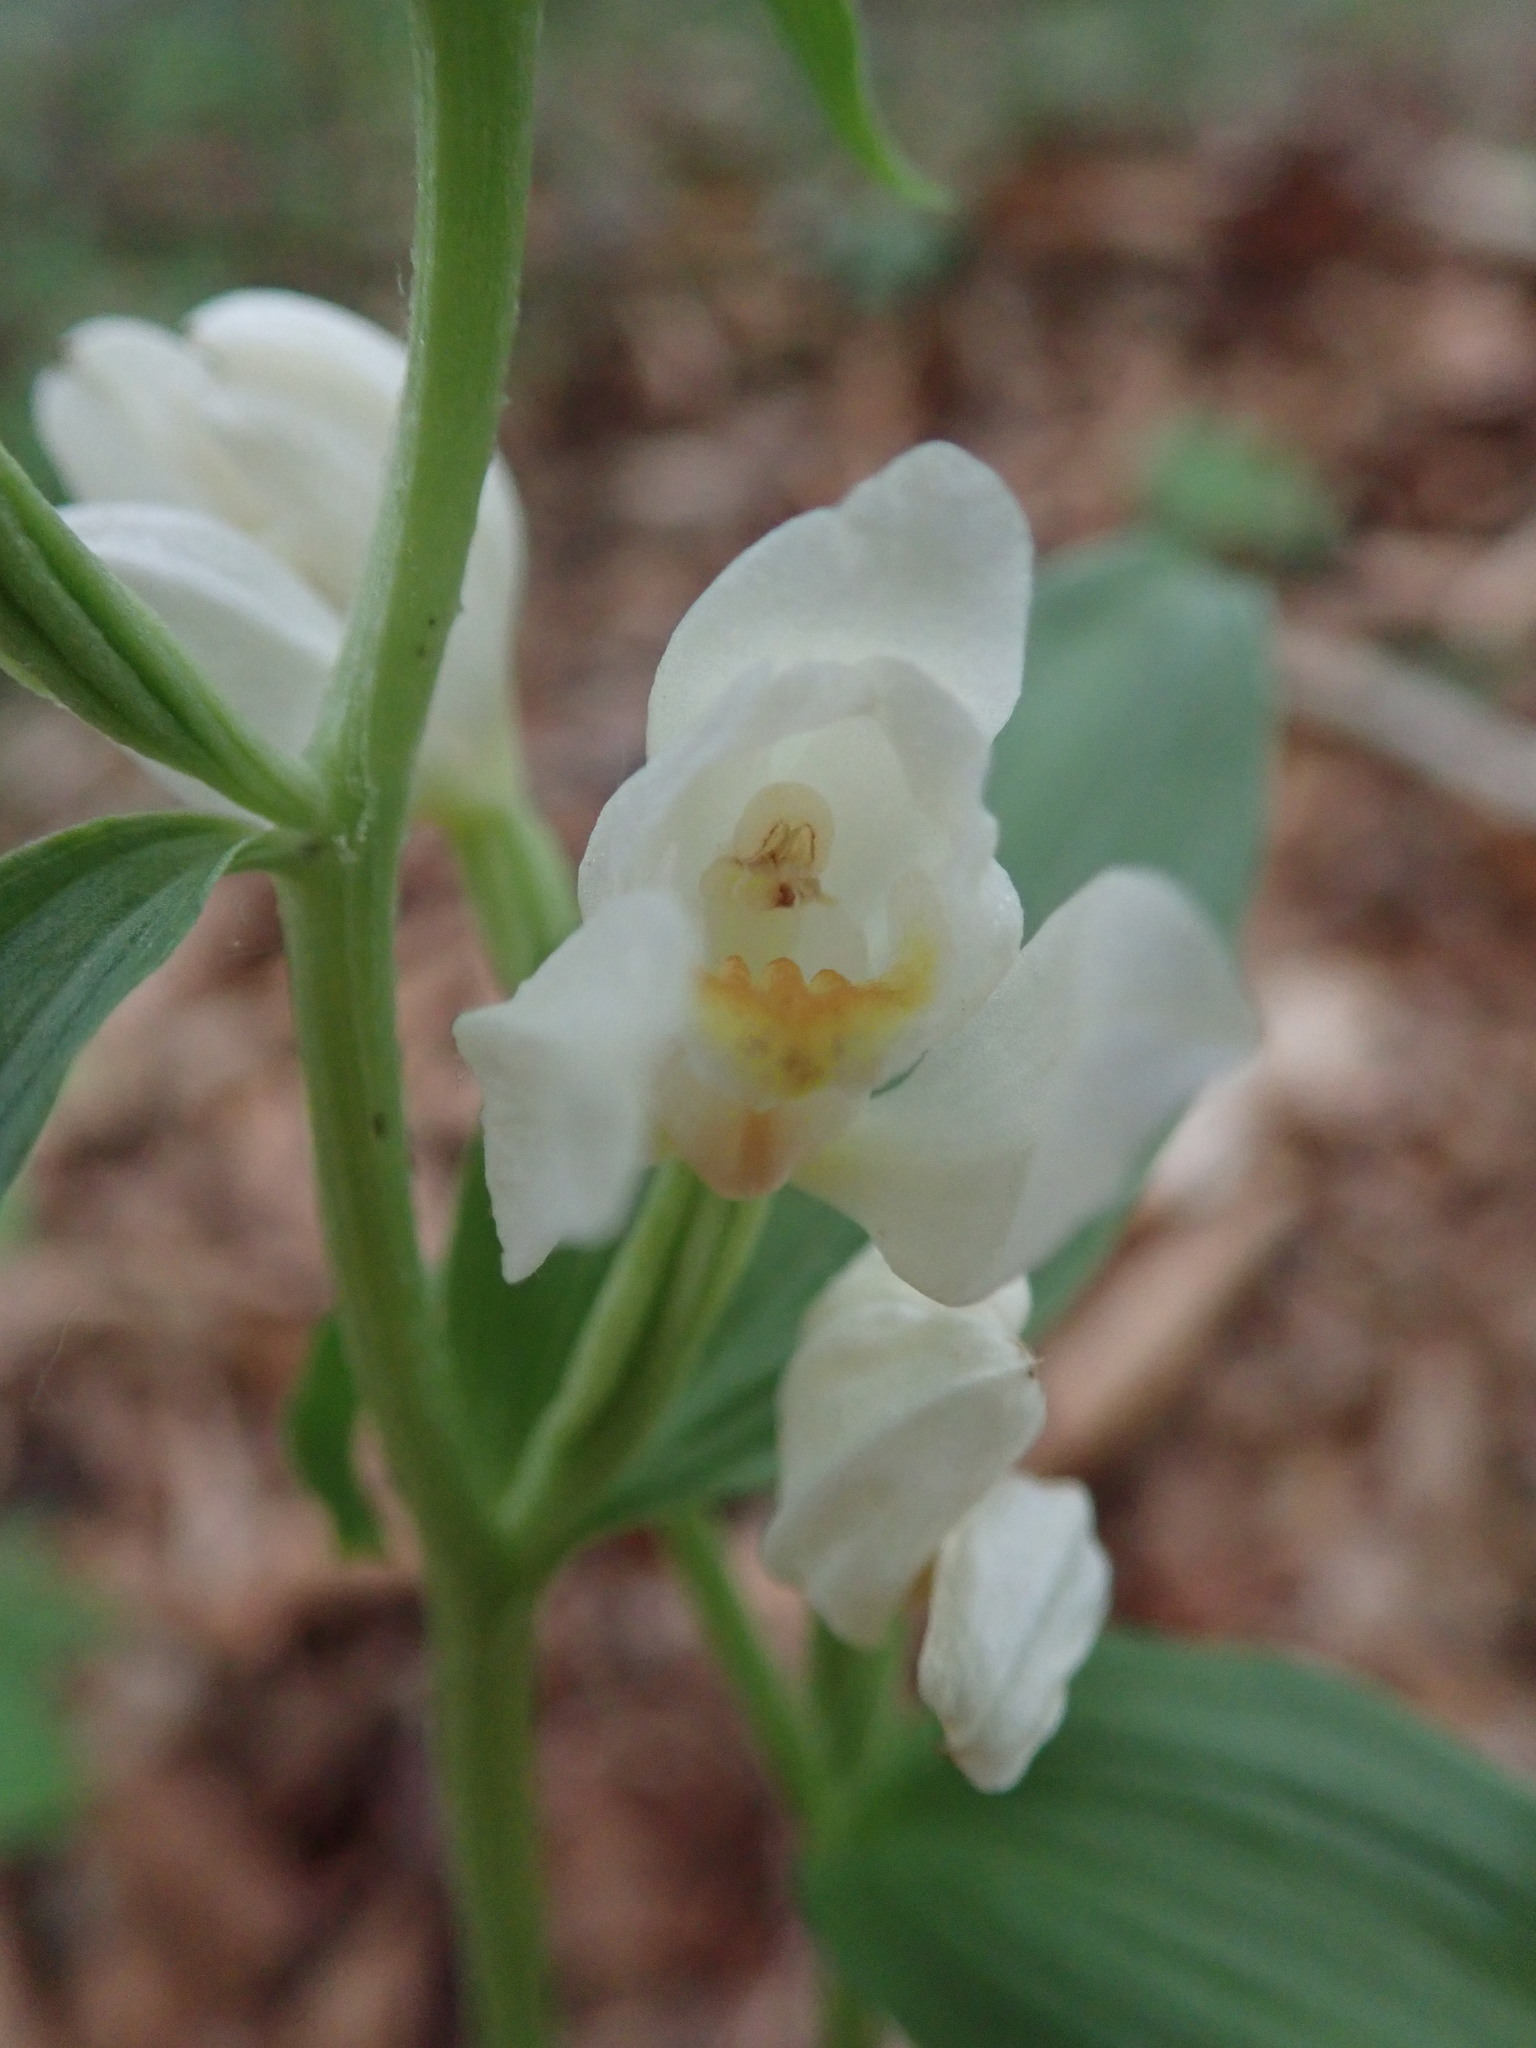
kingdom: Plantae
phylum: Tracheophyta
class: Liliopsida
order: Asparagales
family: Orchidaceae
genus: Cephalanthera
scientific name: Cephalanthera damasonium
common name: White helleborine
